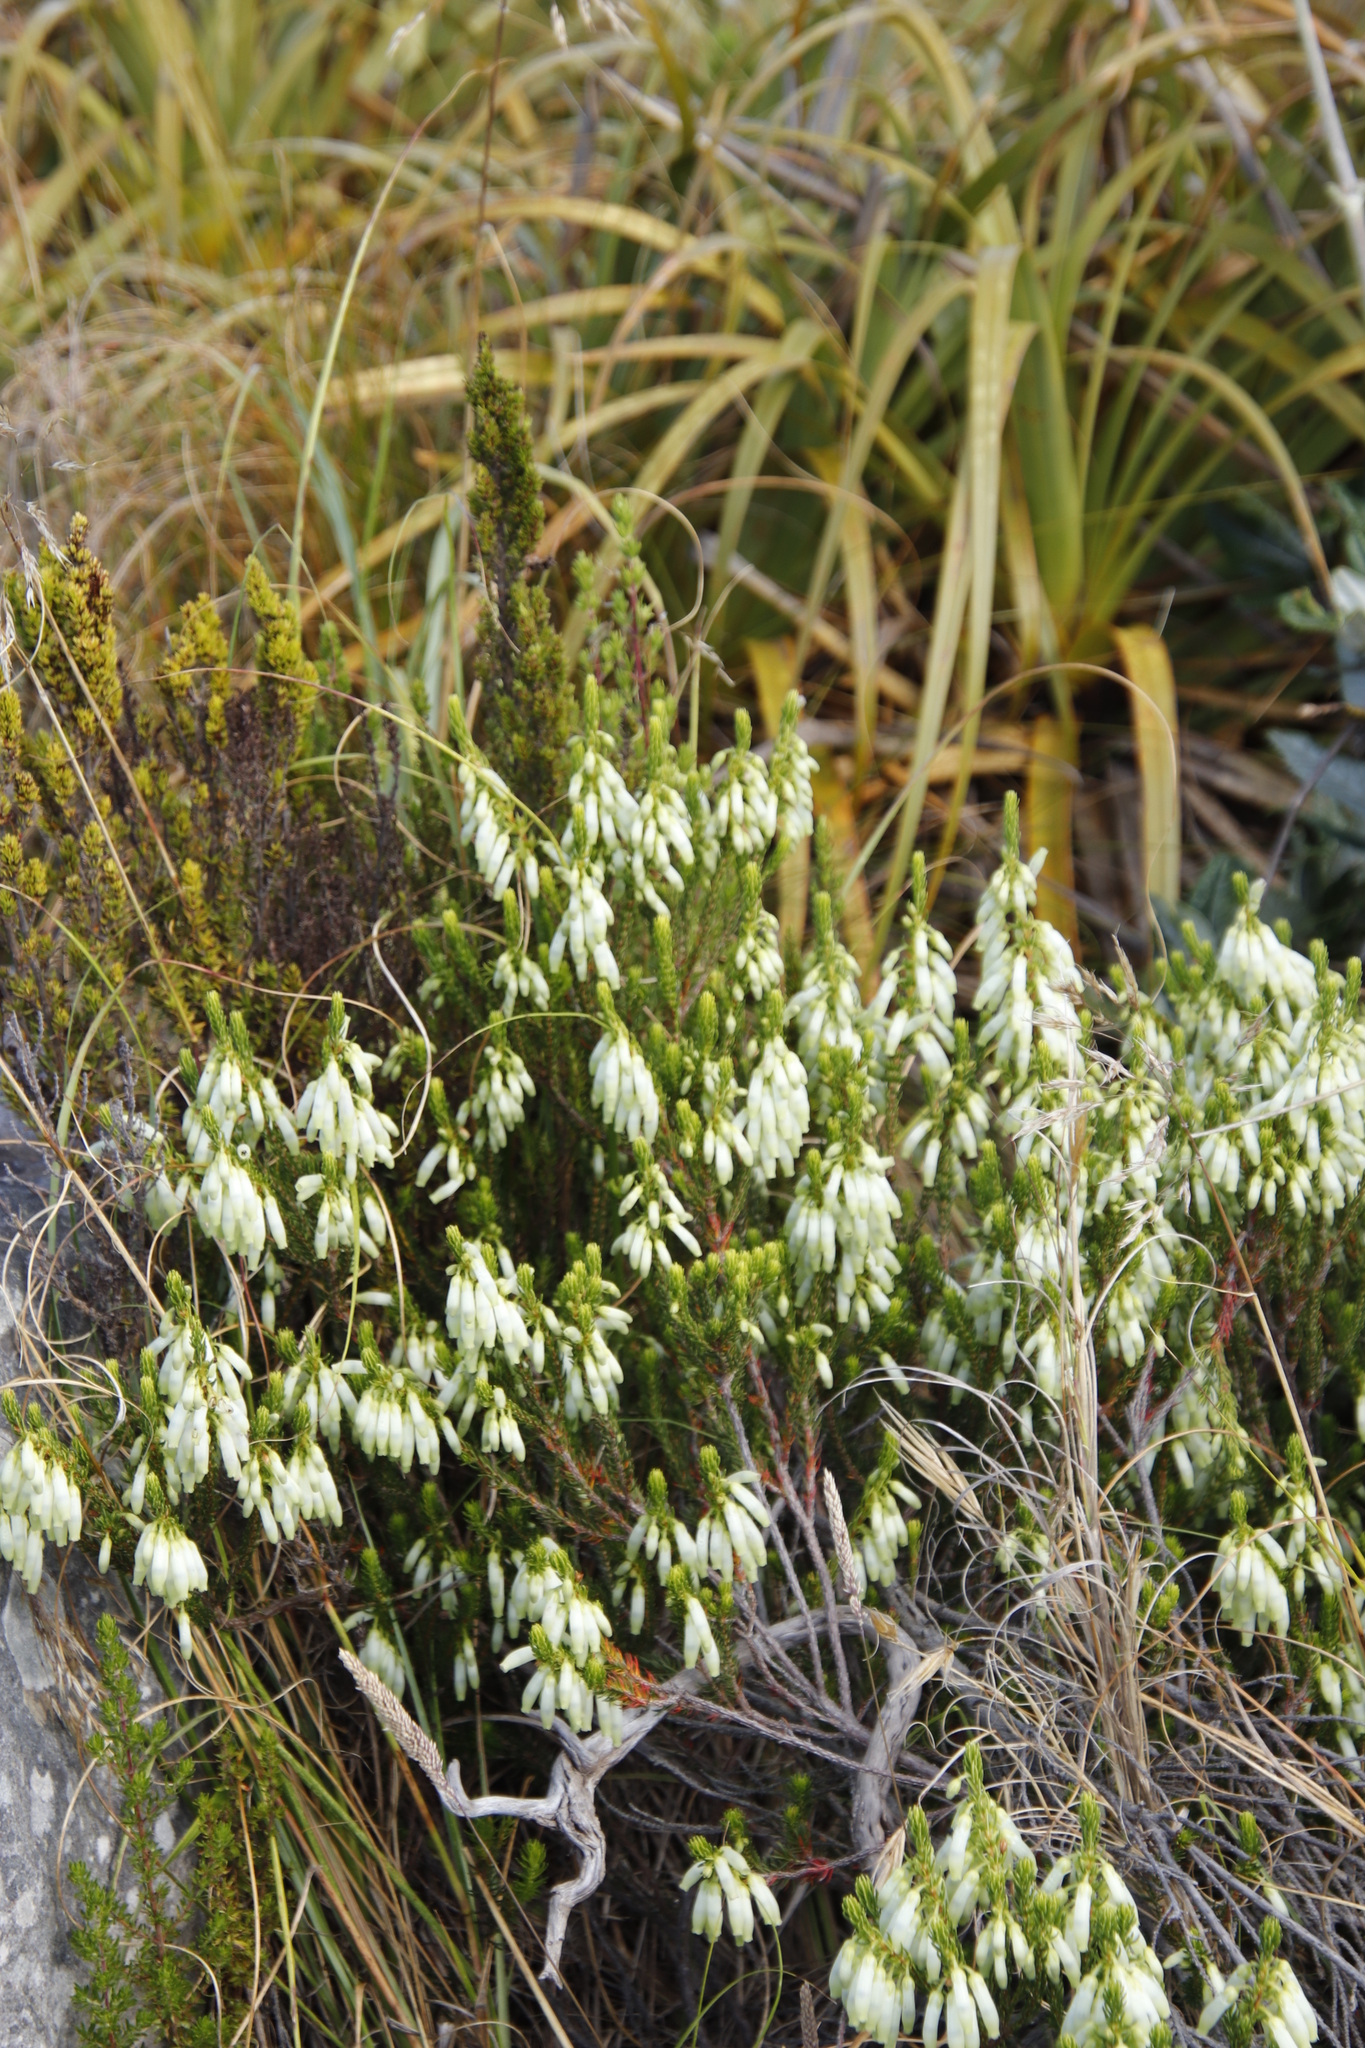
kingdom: Plantae
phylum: Tracheophyta
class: Magnoliopsida
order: Ericales
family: Ericaceae
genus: Erica
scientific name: Erica mammosa
